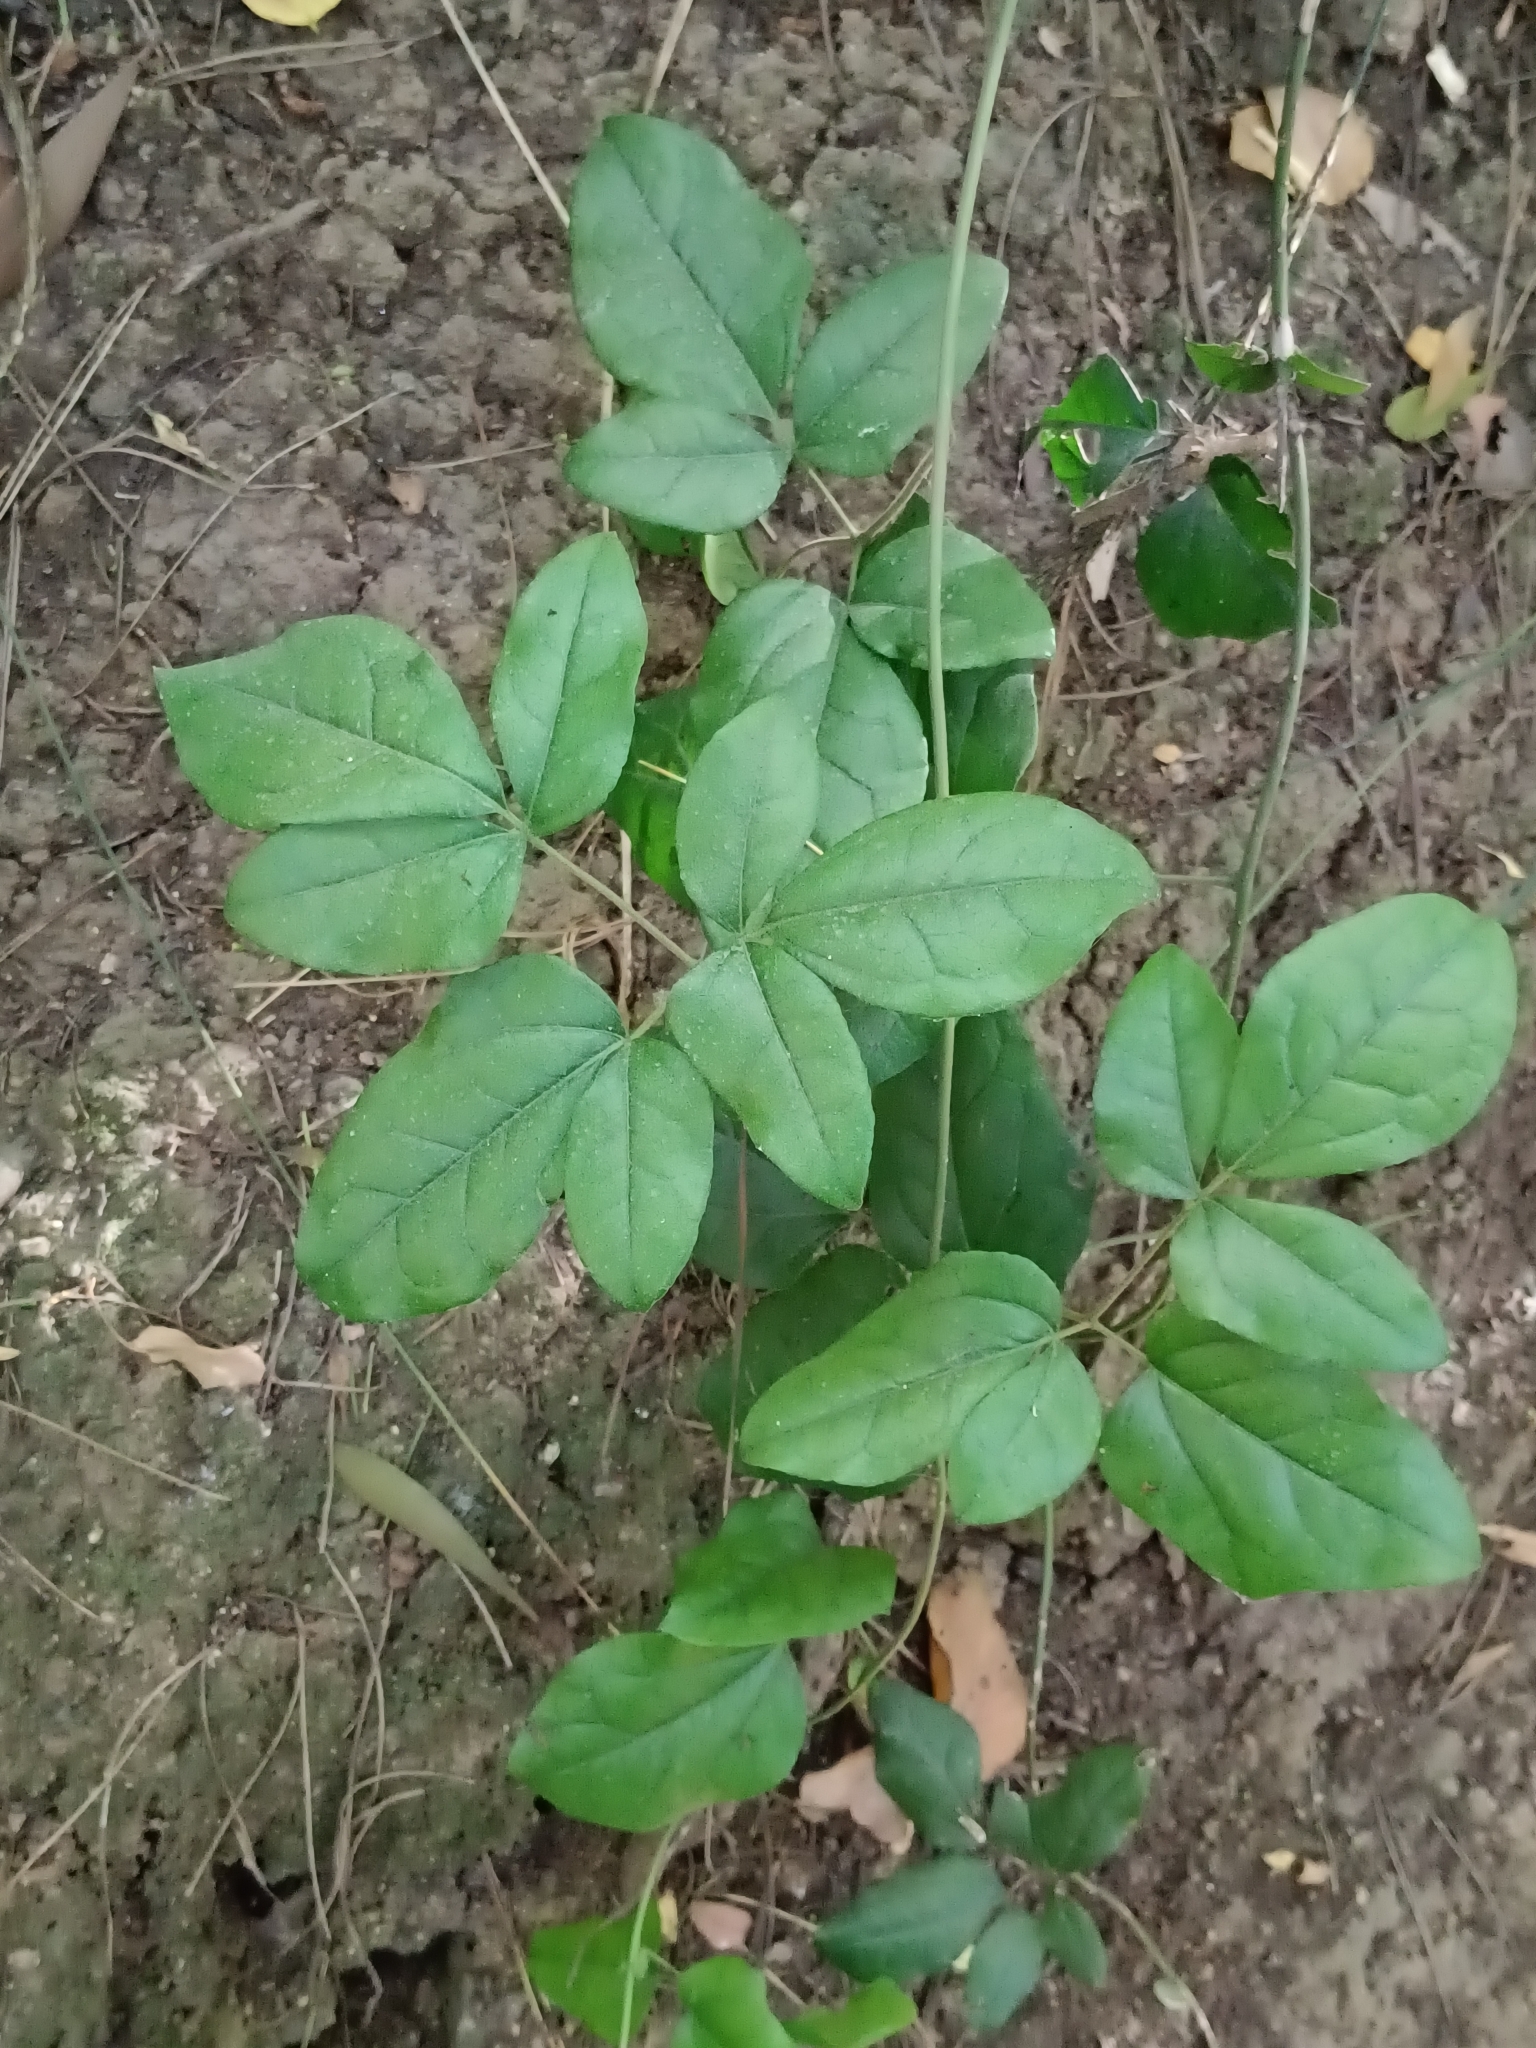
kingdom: Plantae
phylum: Tracheophyta
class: Magnoliopsida
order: Ranunculales
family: Lardizabalaceae
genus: Lardizabala
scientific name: Lardizabala funaria
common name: Zabala
